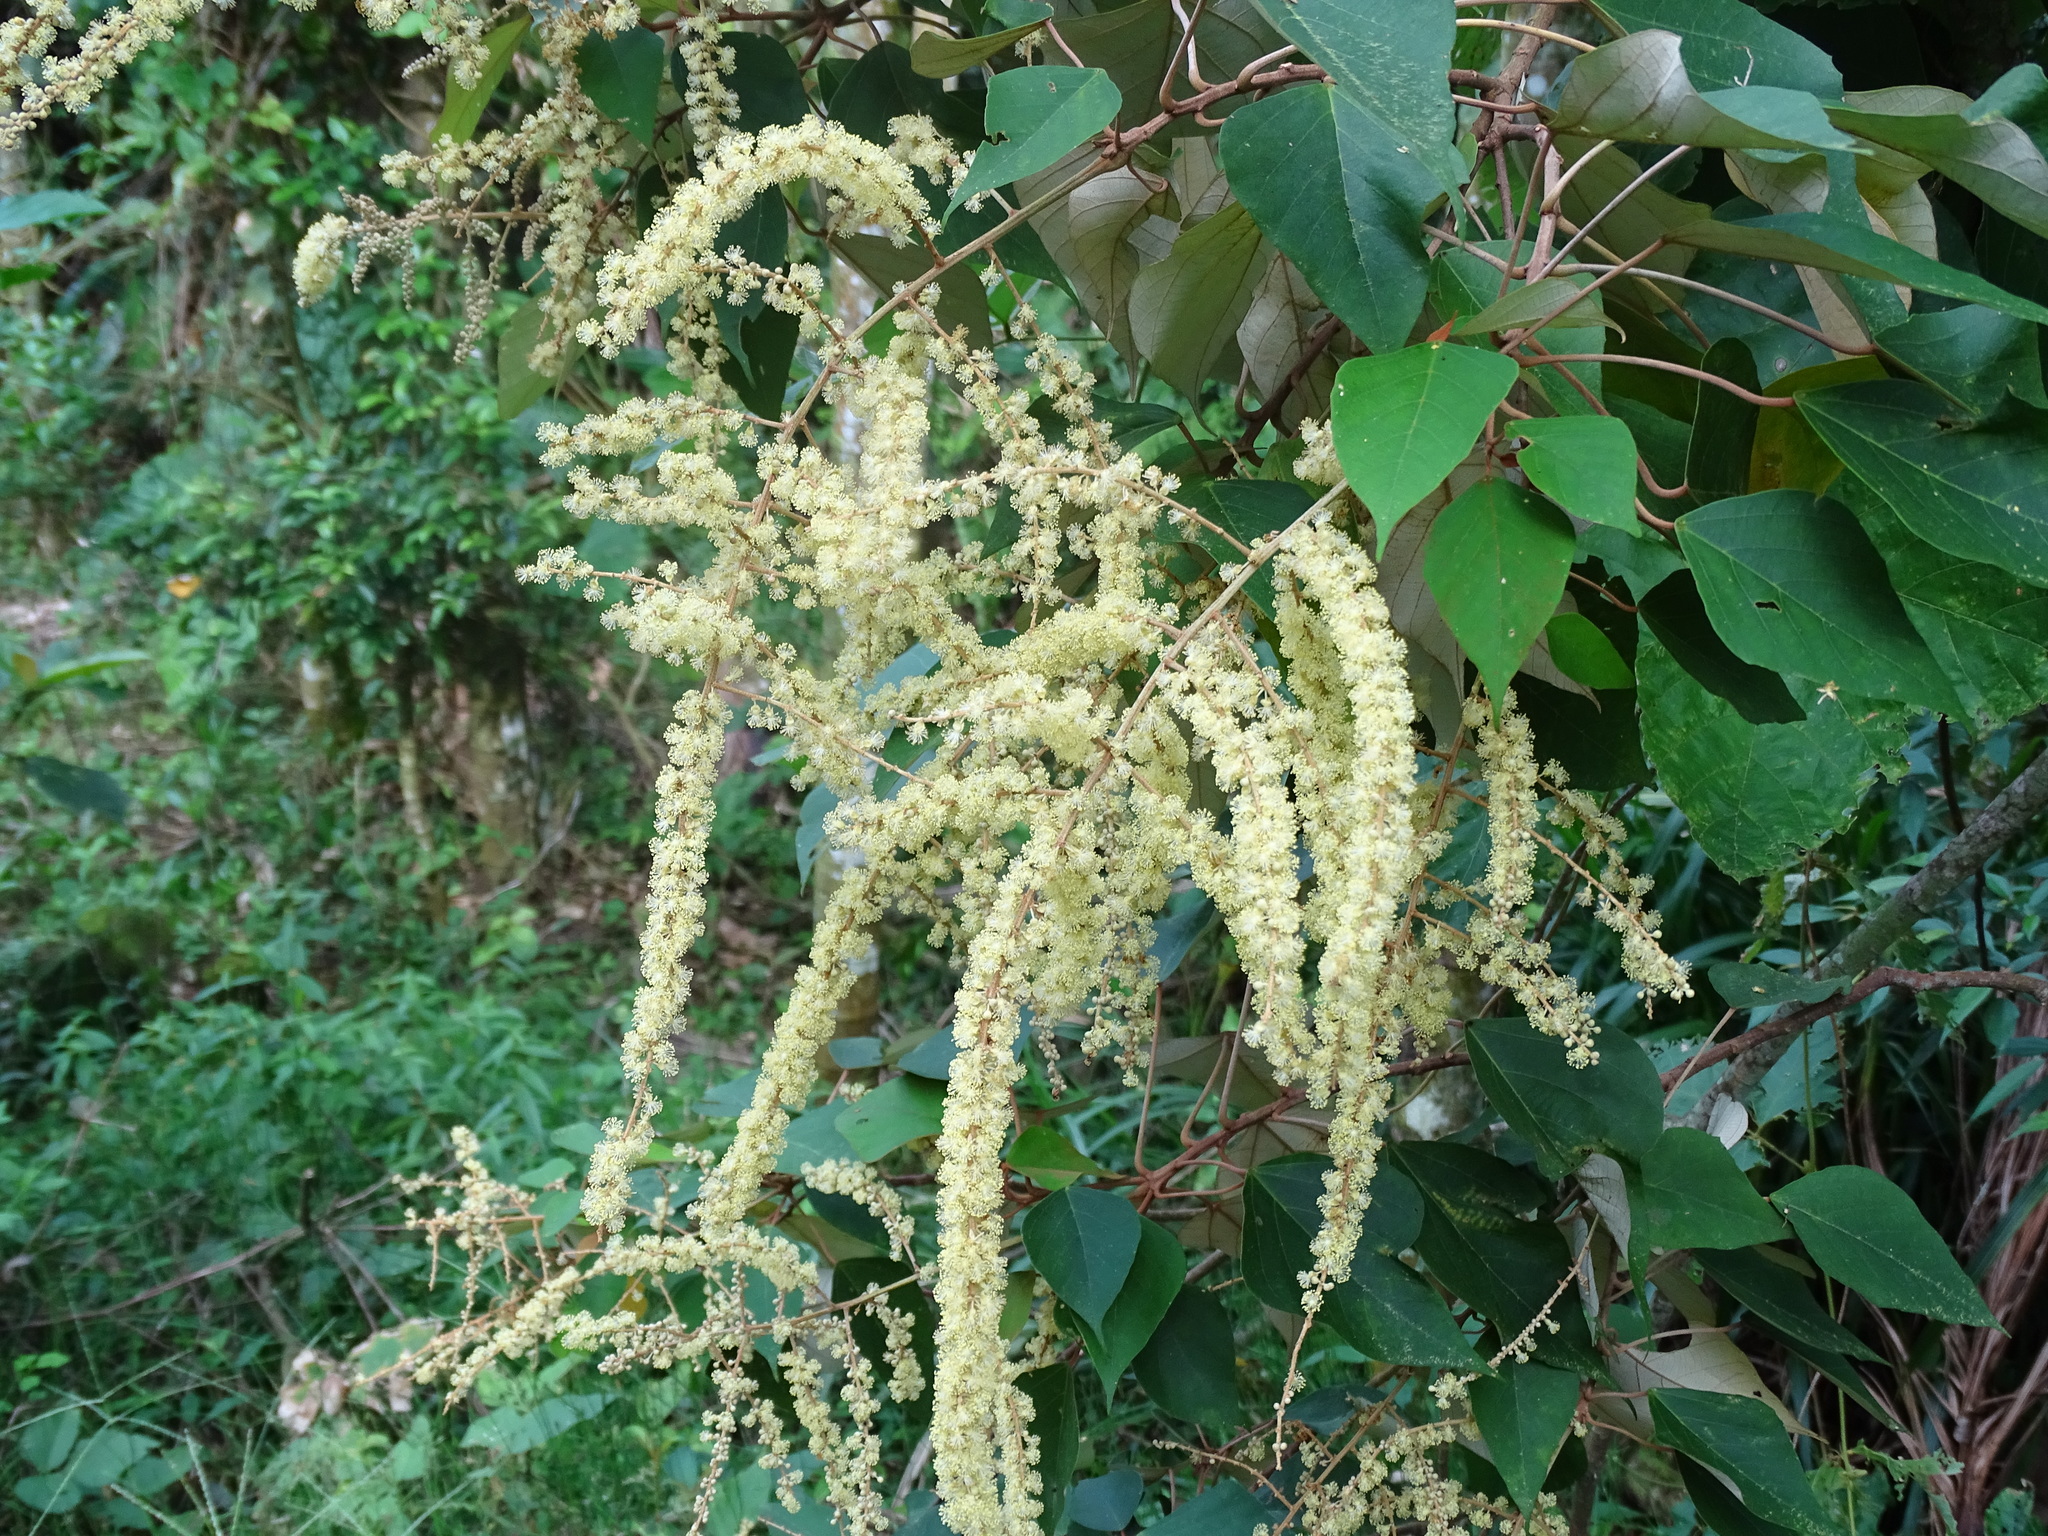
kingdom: Plantae
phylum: Tracheophyta
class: Magnoliopsida
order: Malpighiales
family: Euphorbiaceae
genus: Mallotus
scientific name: Mallotus paniculatus
